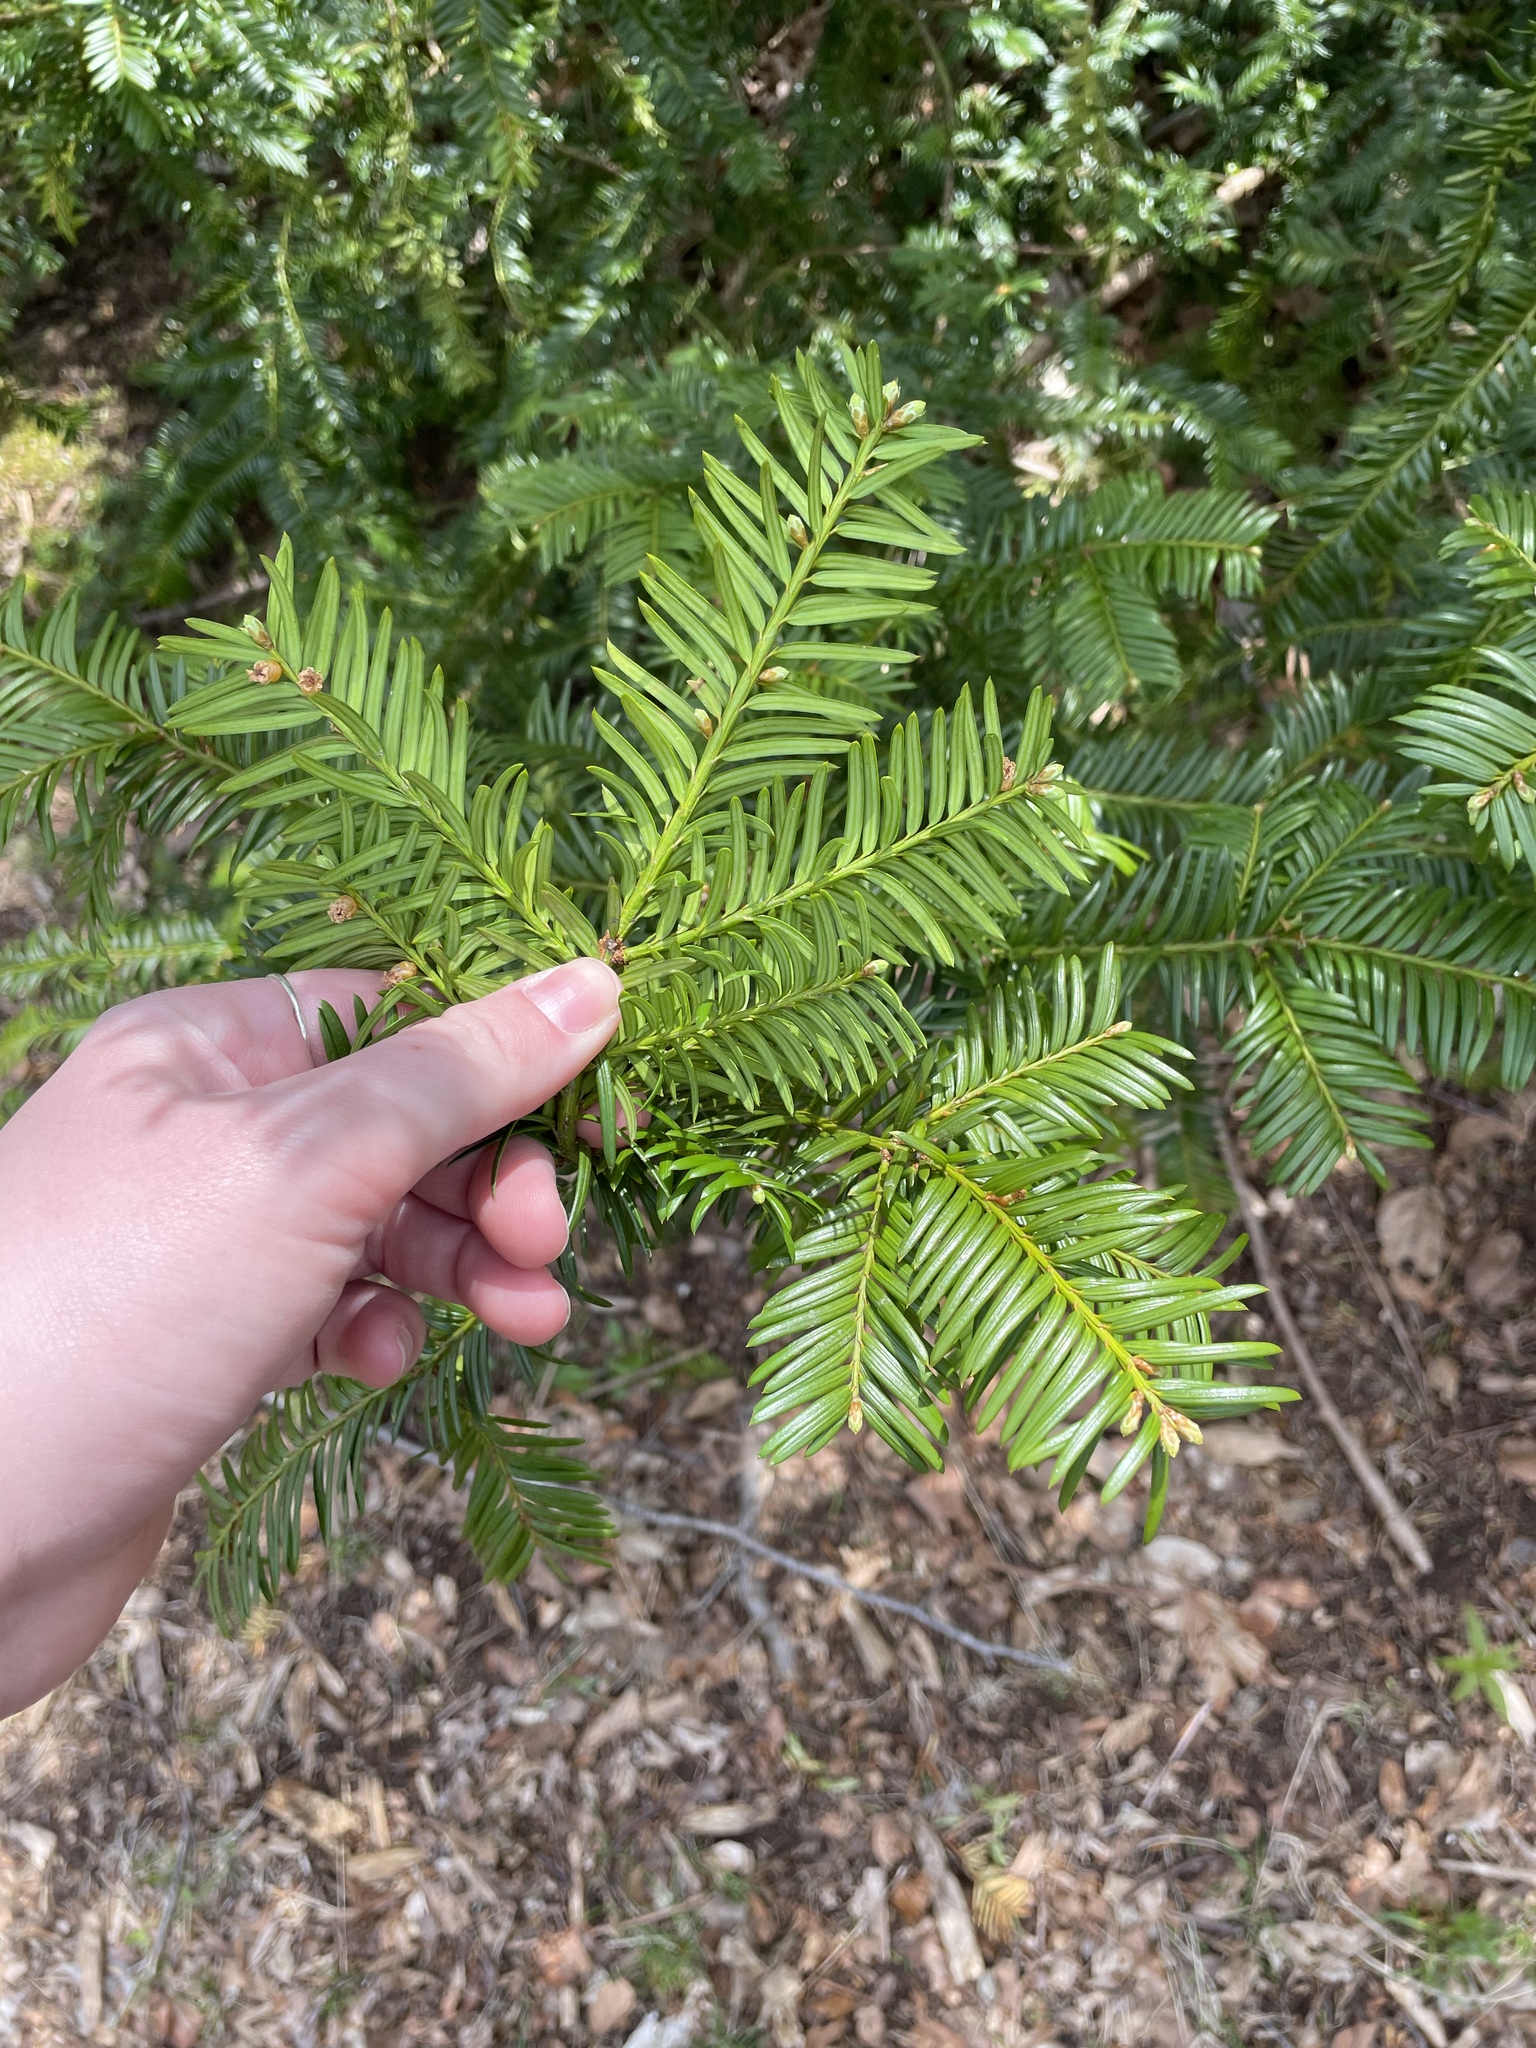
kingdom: Plantae
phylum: Tracheophyta
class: Pinopsida
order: Pinales
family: Taxaceae
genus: Taxus
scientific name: Taxus canadensis
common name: American yew
